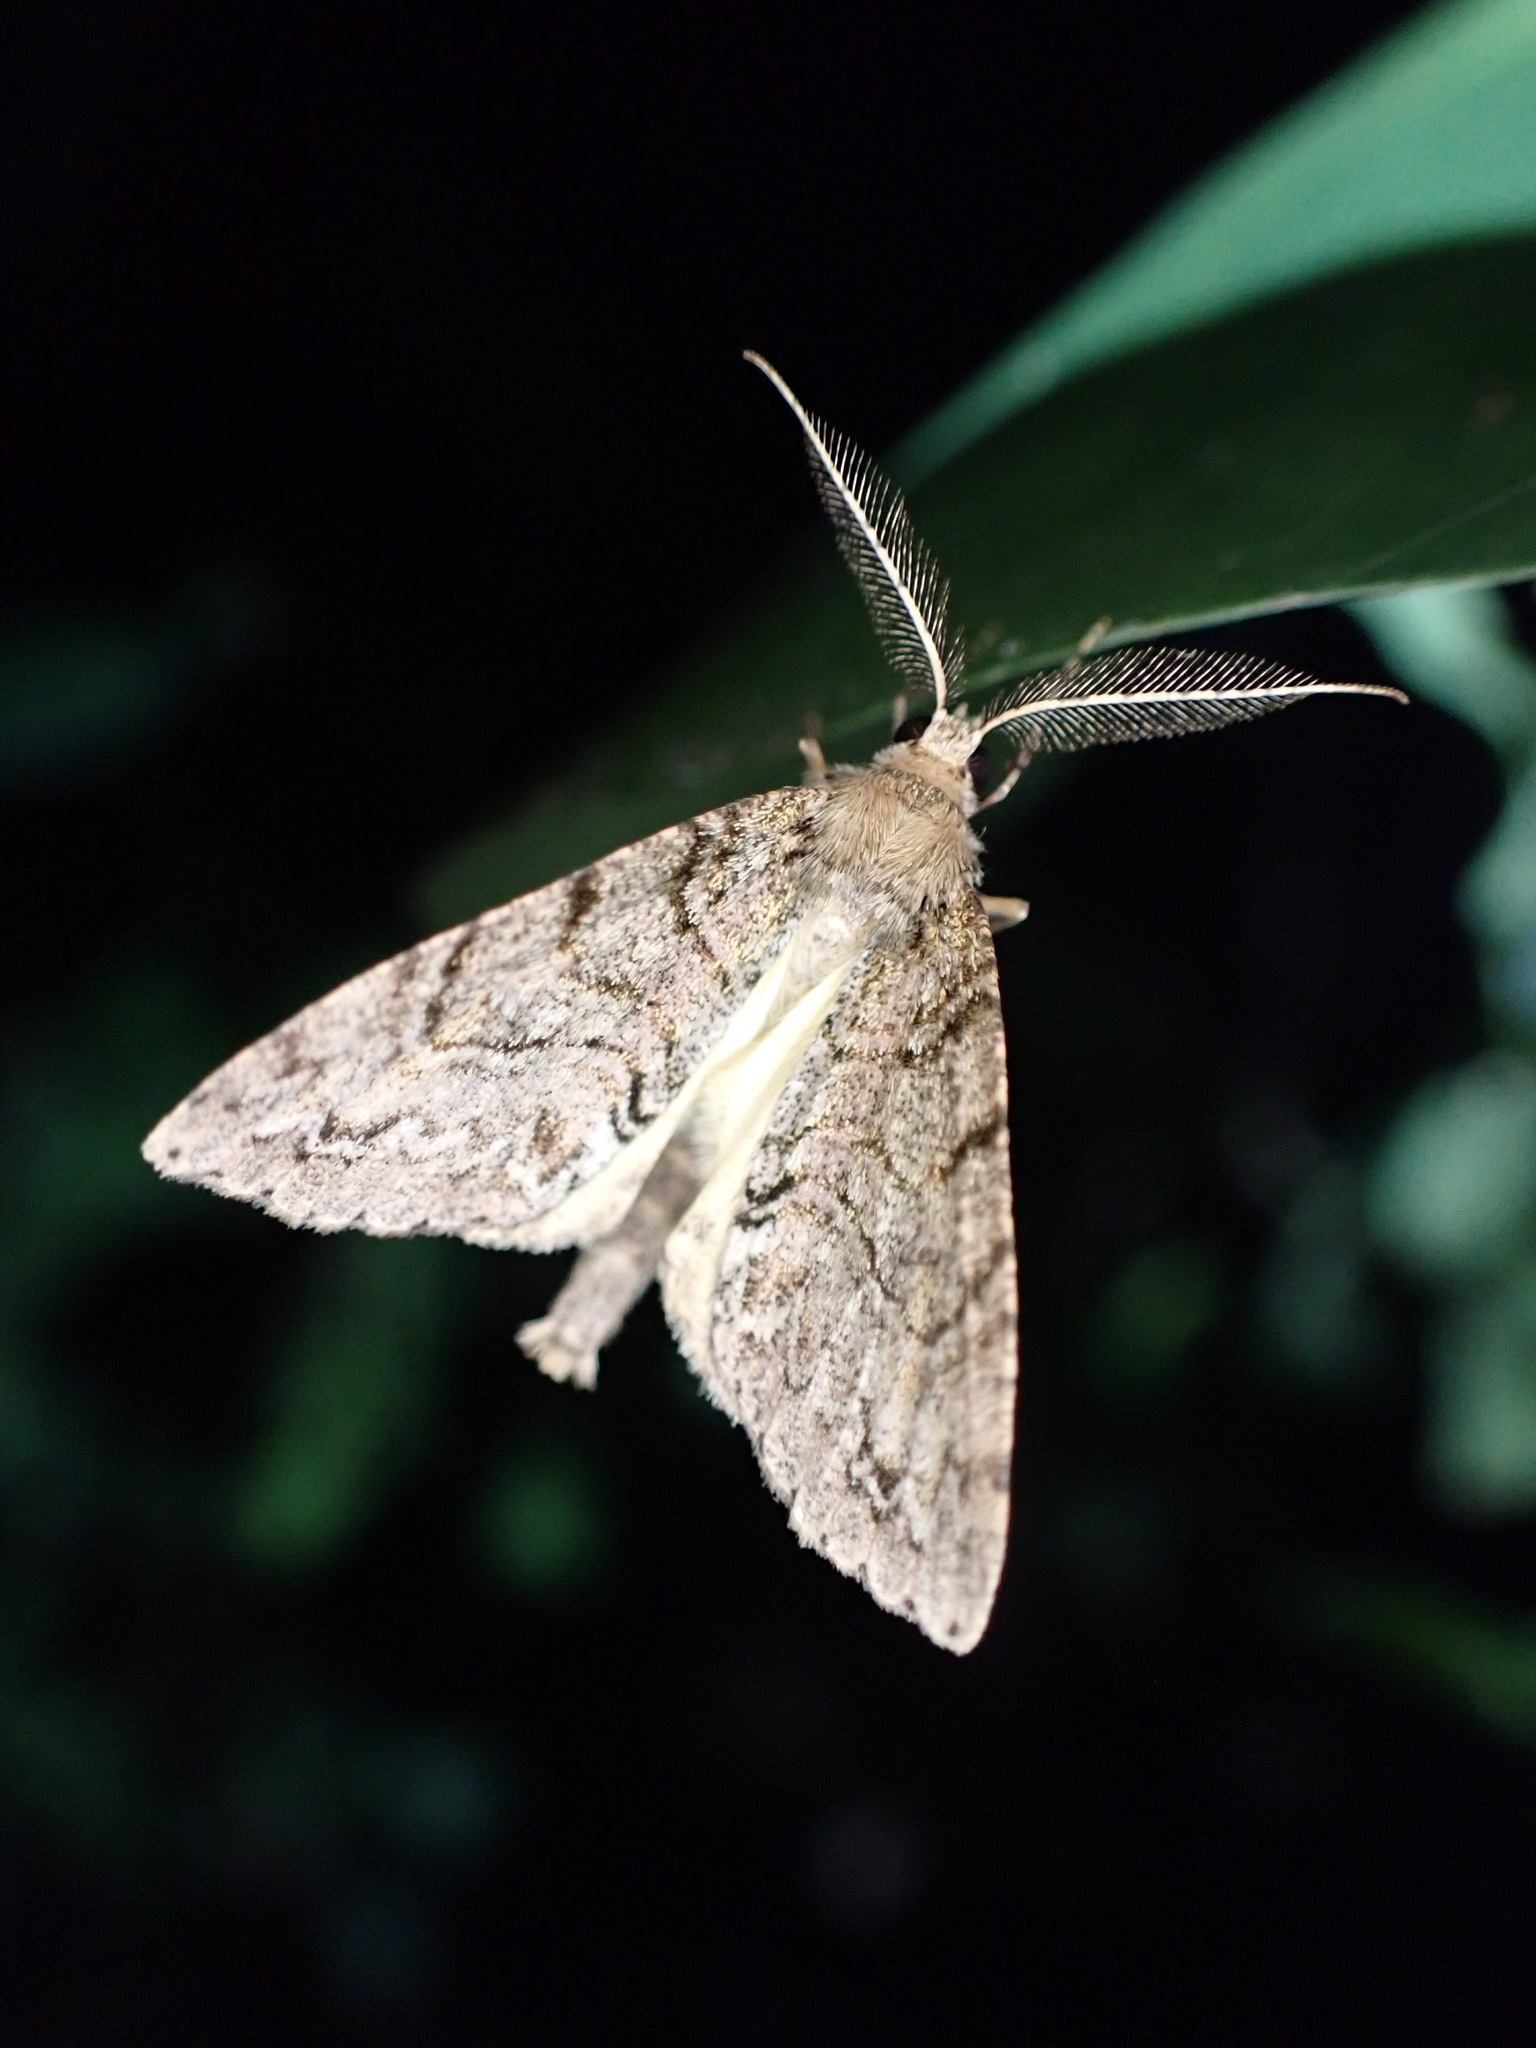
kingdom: Animalia
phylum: Arthropoda
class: Insecta
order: Lepidoptera
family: Geometridae
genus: Pseudocoremia
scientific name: Pseudocoremia suavis
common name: Common forest looper
